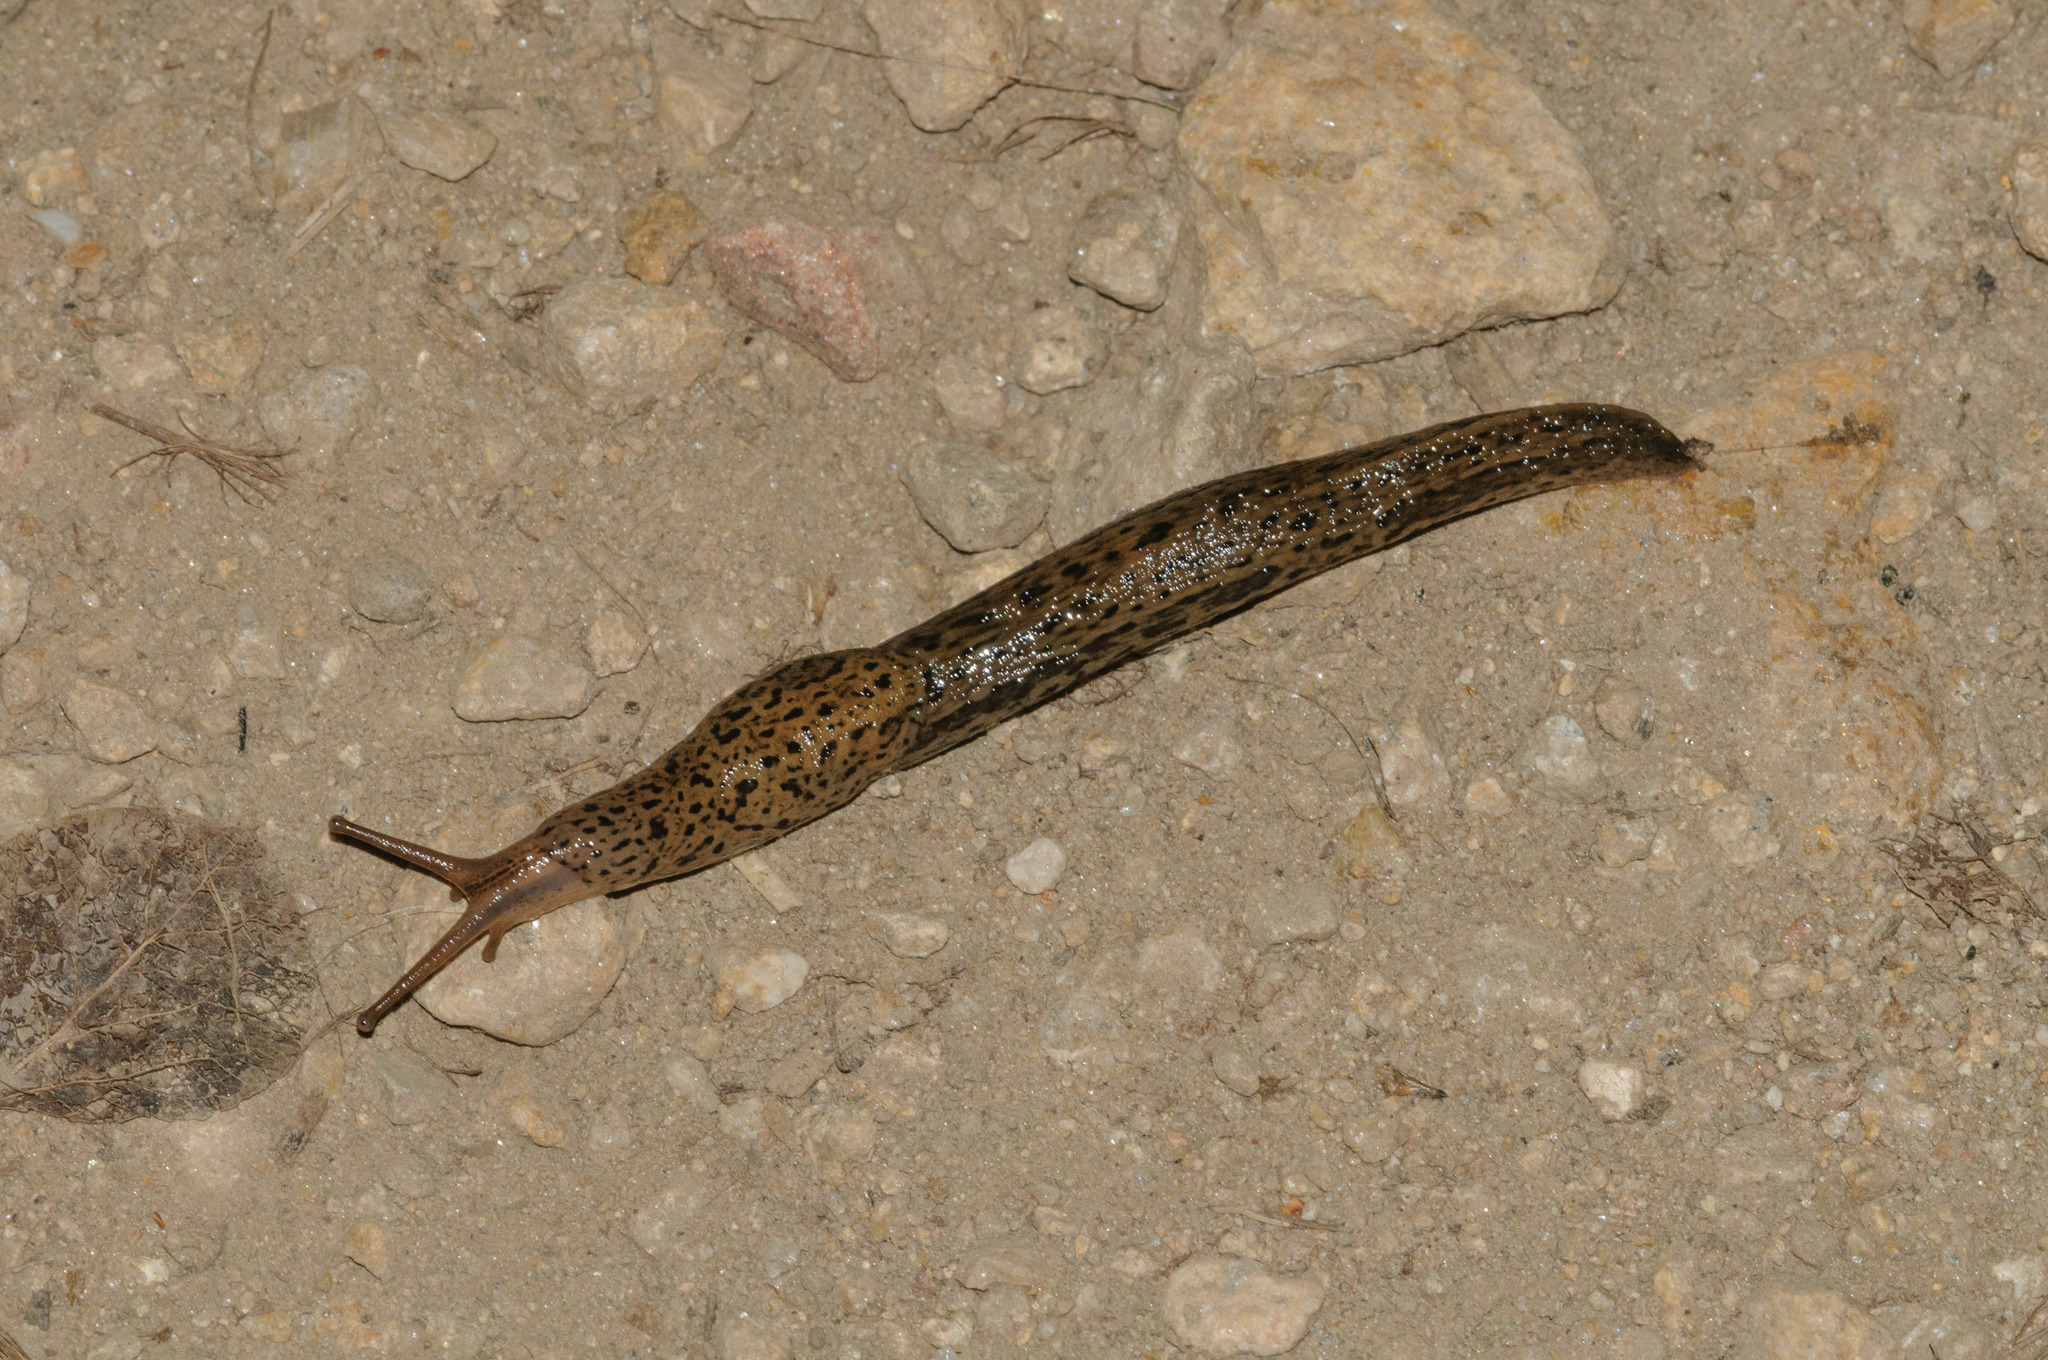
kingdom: Animalia
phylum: Mollusca
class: Gastropoda
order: Stylommatophora
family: Limacidae
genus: Limax
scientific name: Limax maximus
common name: Great grey slug
